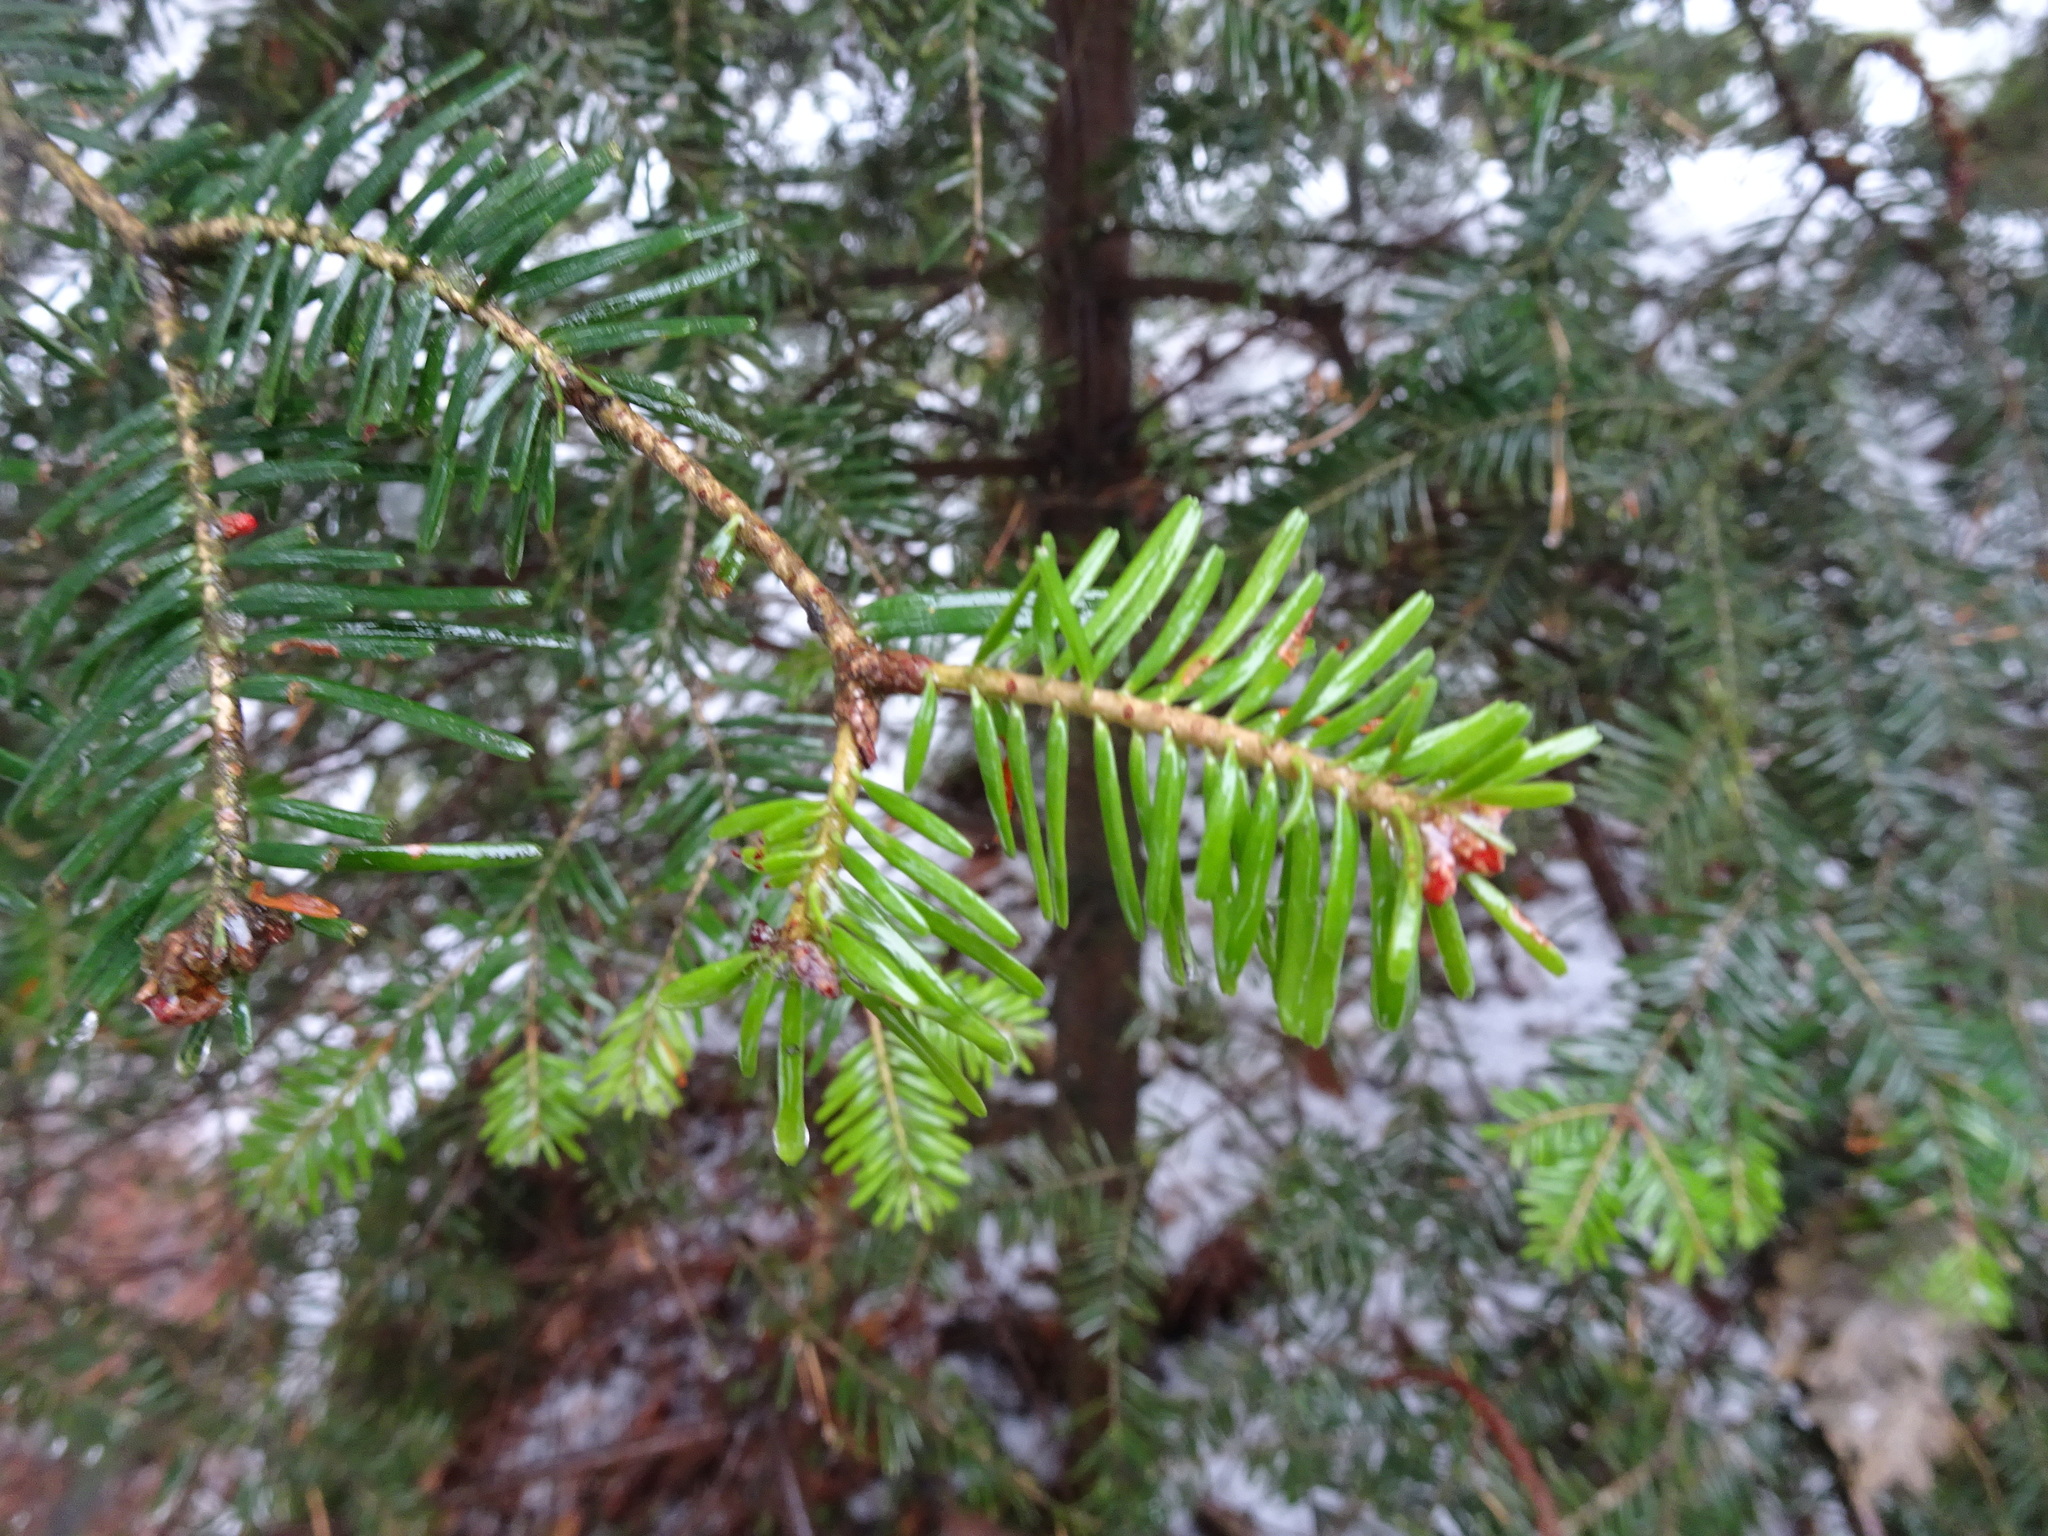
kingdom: Plantae
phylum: Tracheophyta
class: Pinopsida
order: Pinales
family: Pinaceae
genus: Abies
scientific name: Abies alba
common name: Silver fir
